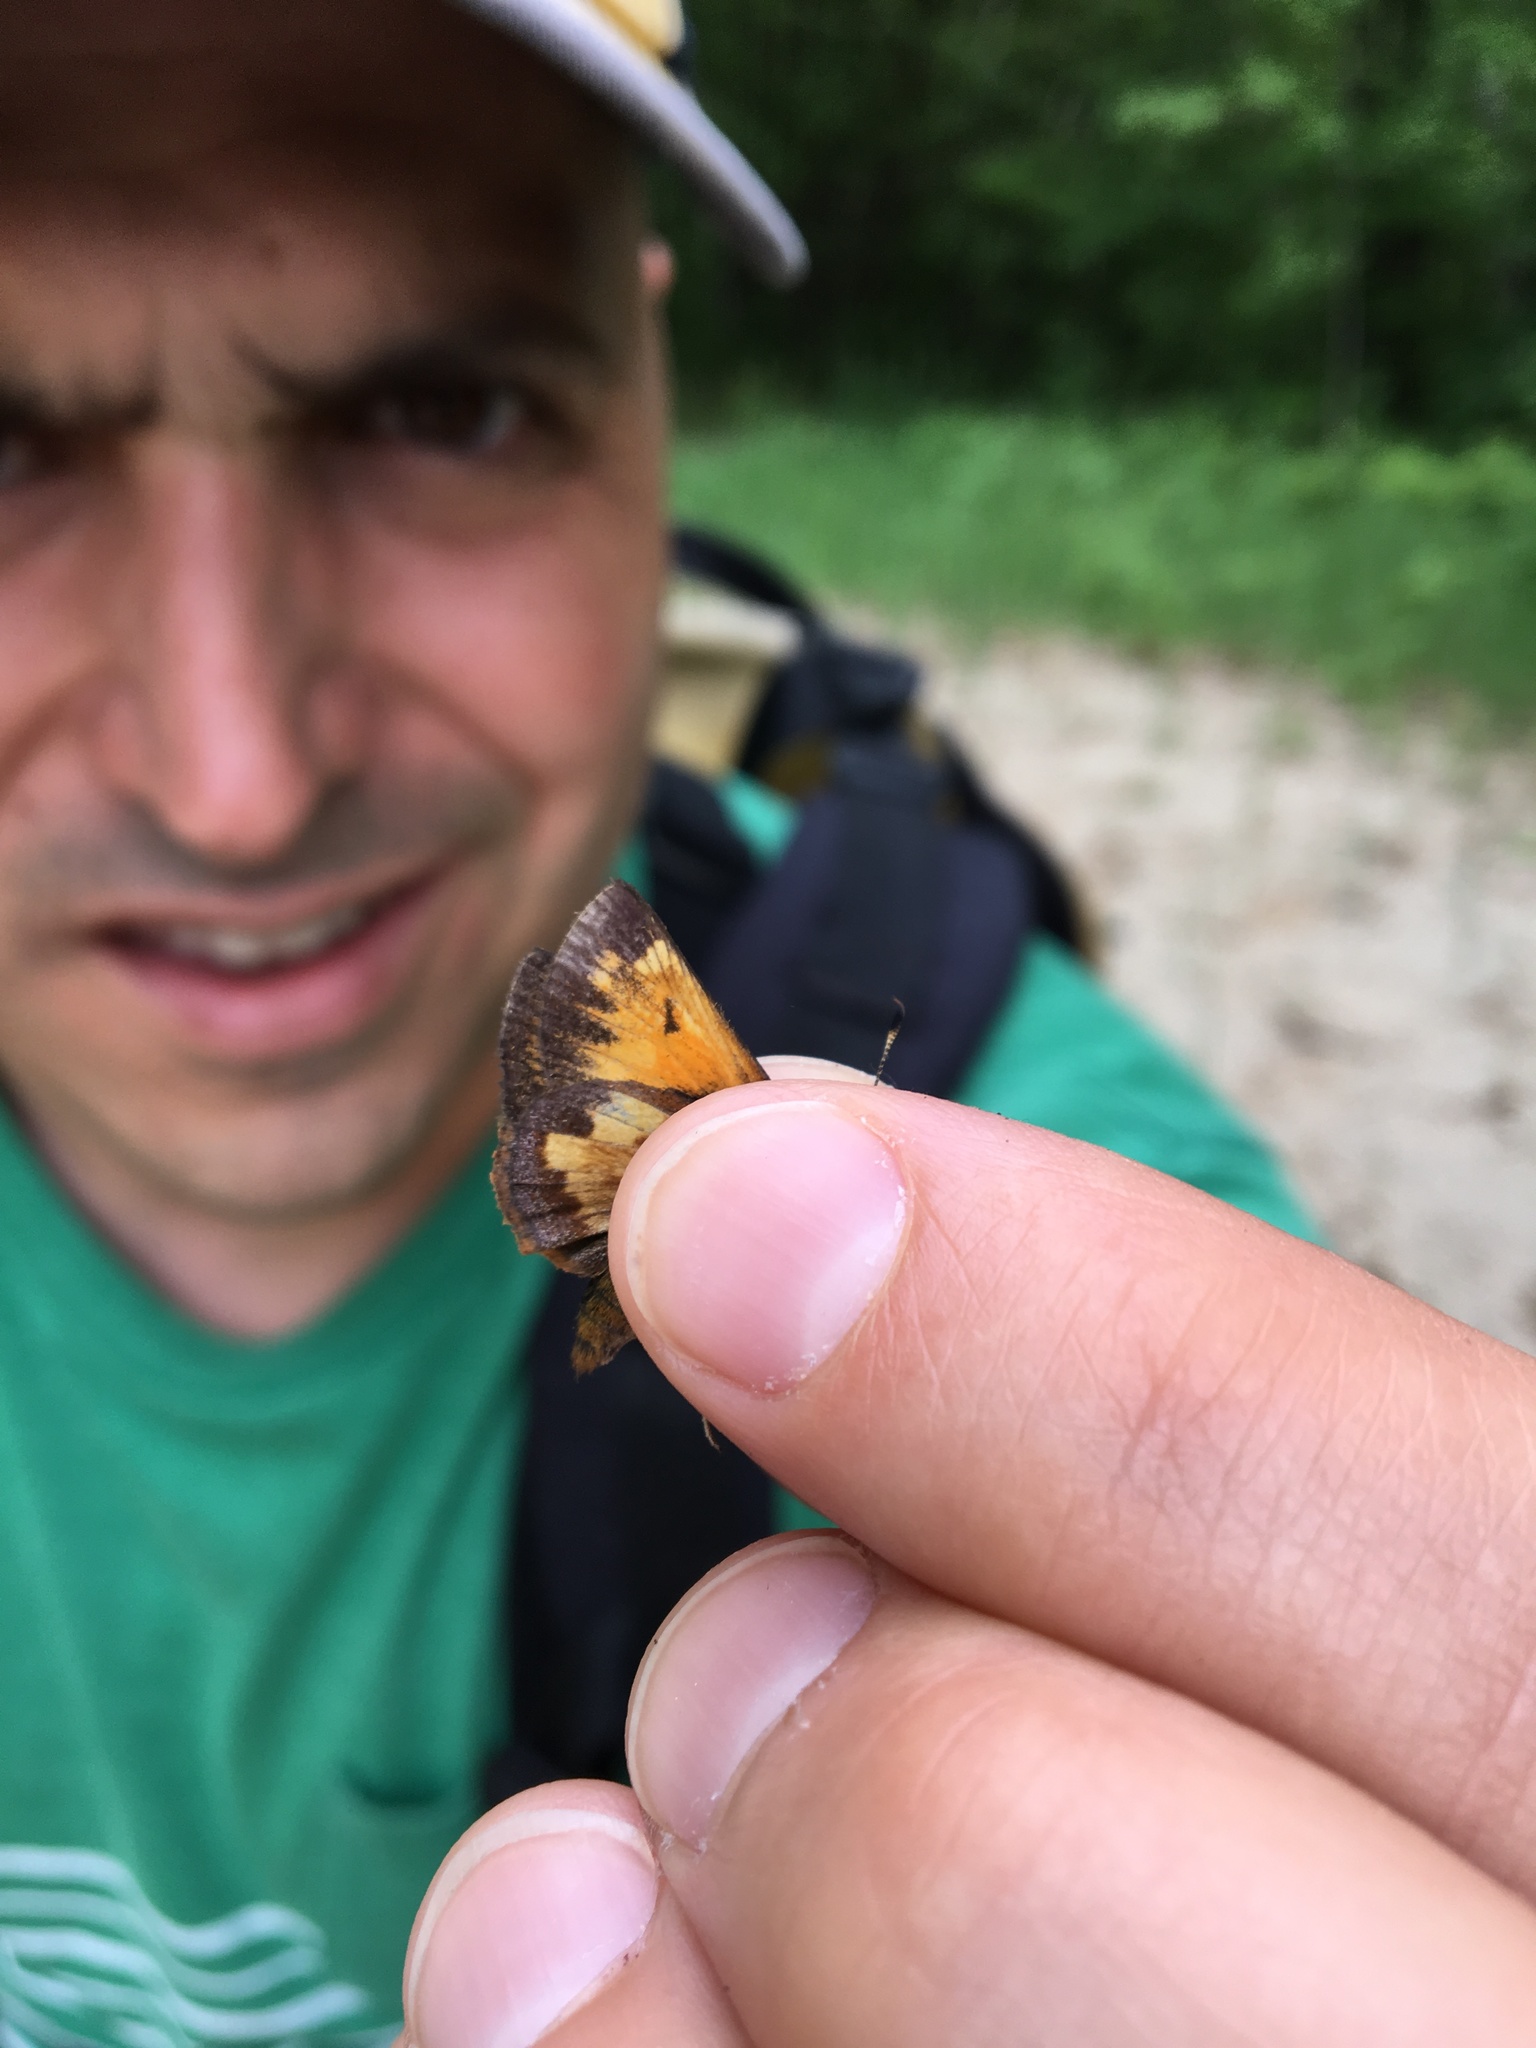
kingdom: Animalia
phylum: Arthropoda
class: Insecta
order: Lepidoptera
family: Hesperiidae
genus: Lon
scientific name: Lon hobomok
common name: Hobomok skipper
